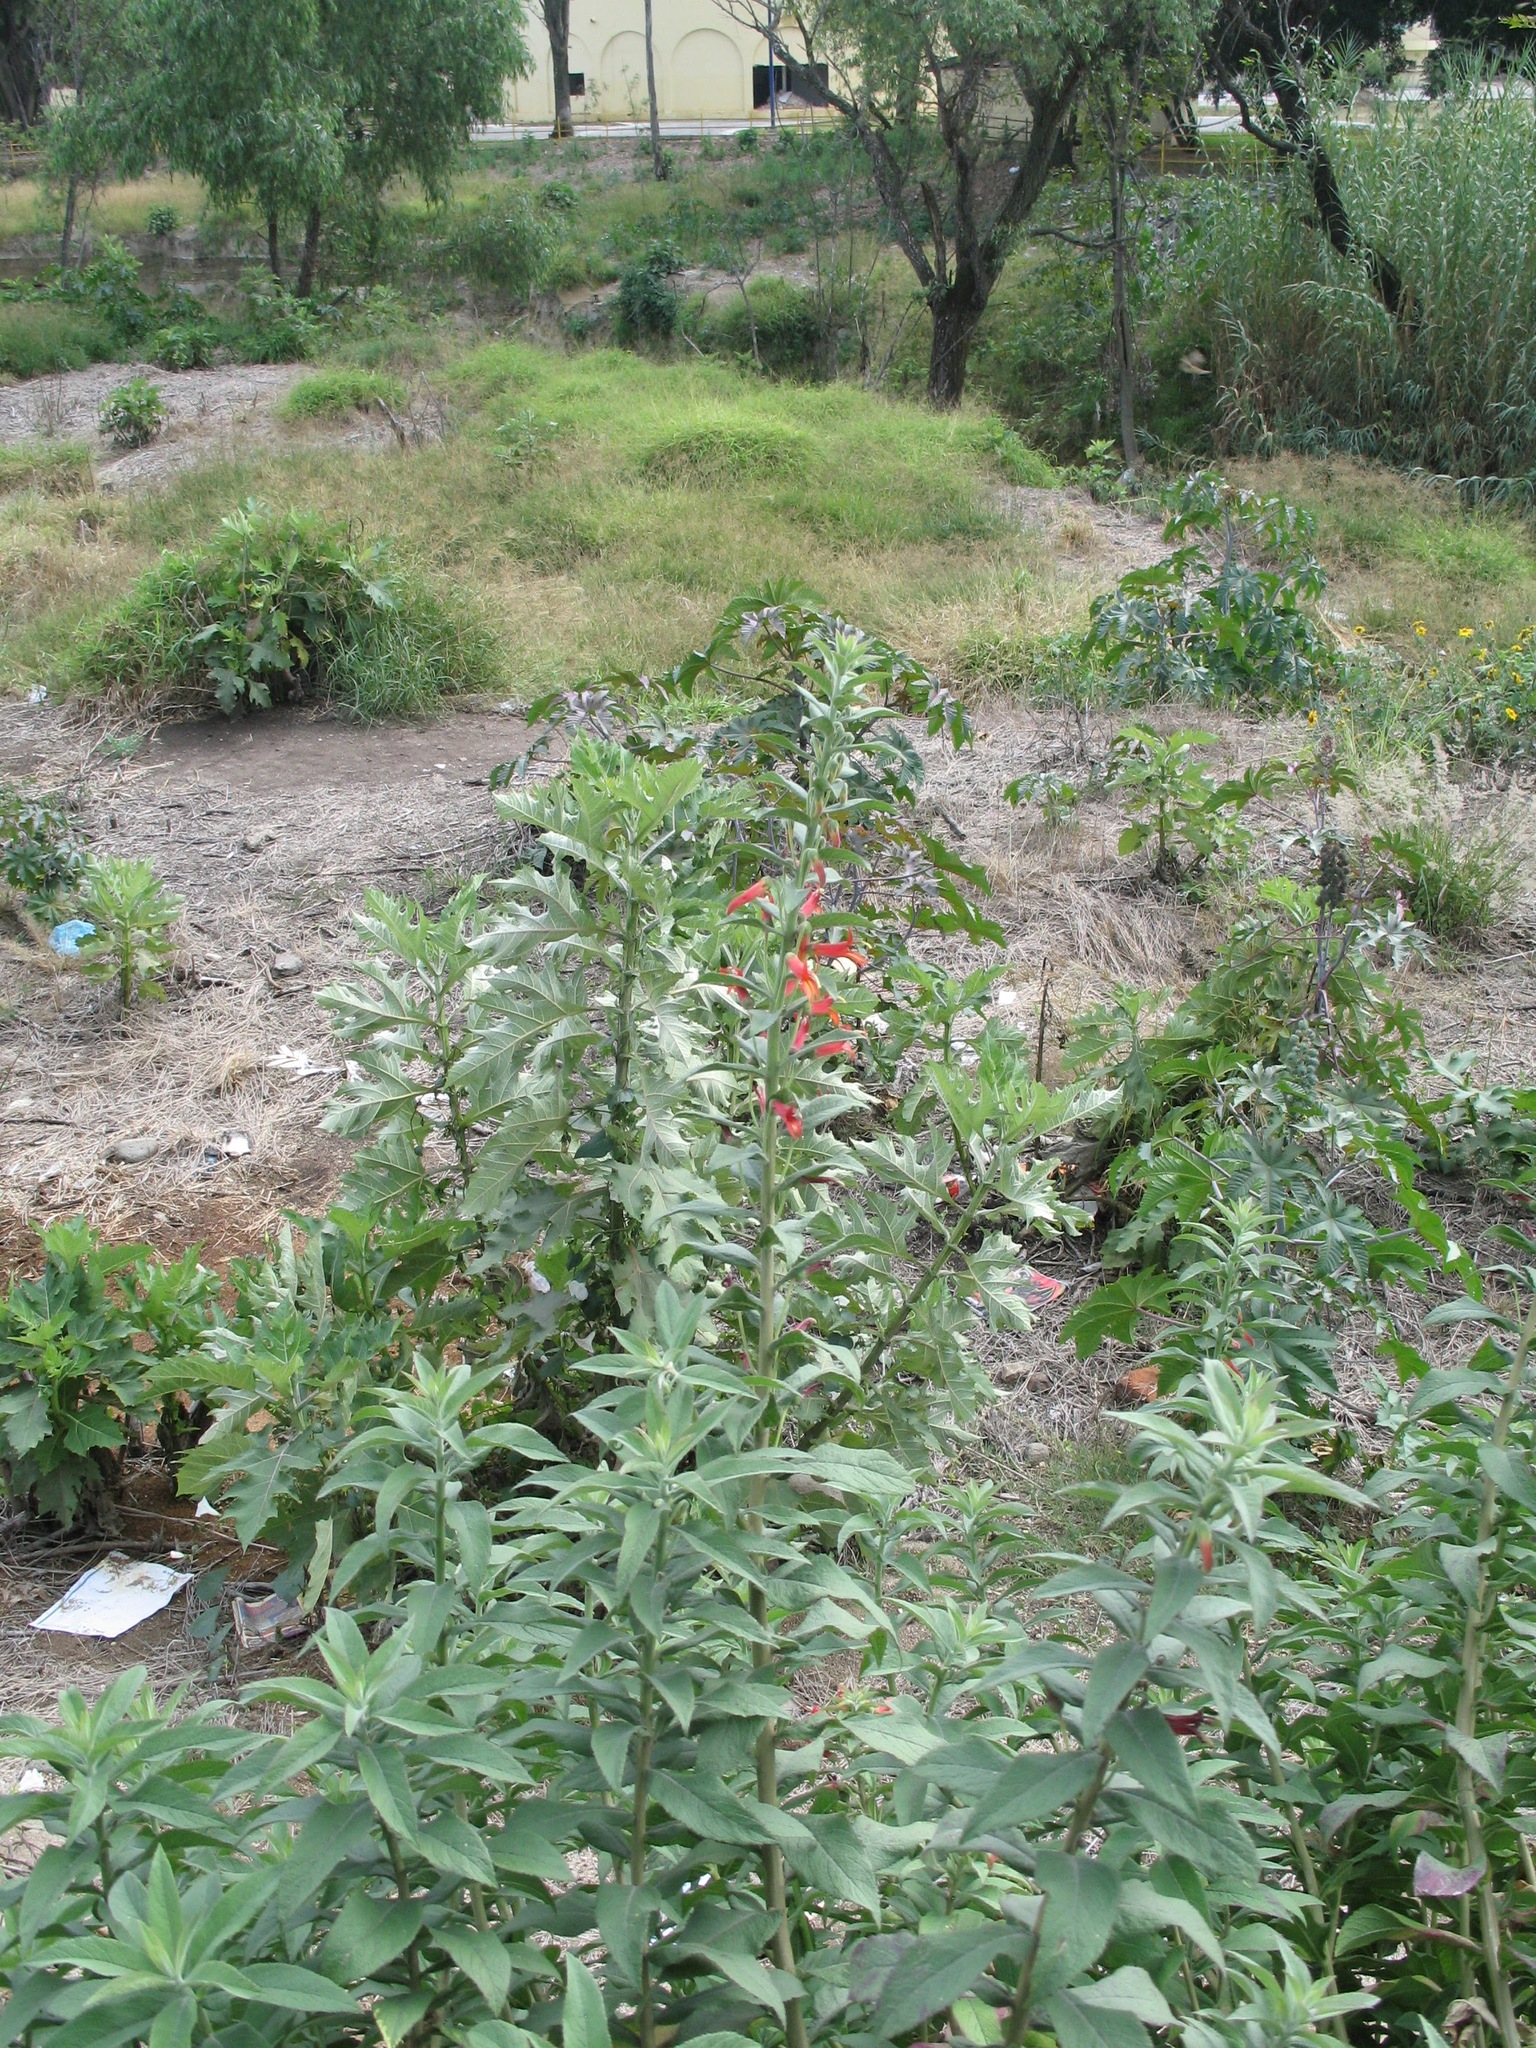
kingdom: Plantae
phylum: Tracheophyta
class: Magnoliopsida
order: Asterales
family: Campanulaceae
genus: Lobelia
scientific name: Lobelia laxiflora
